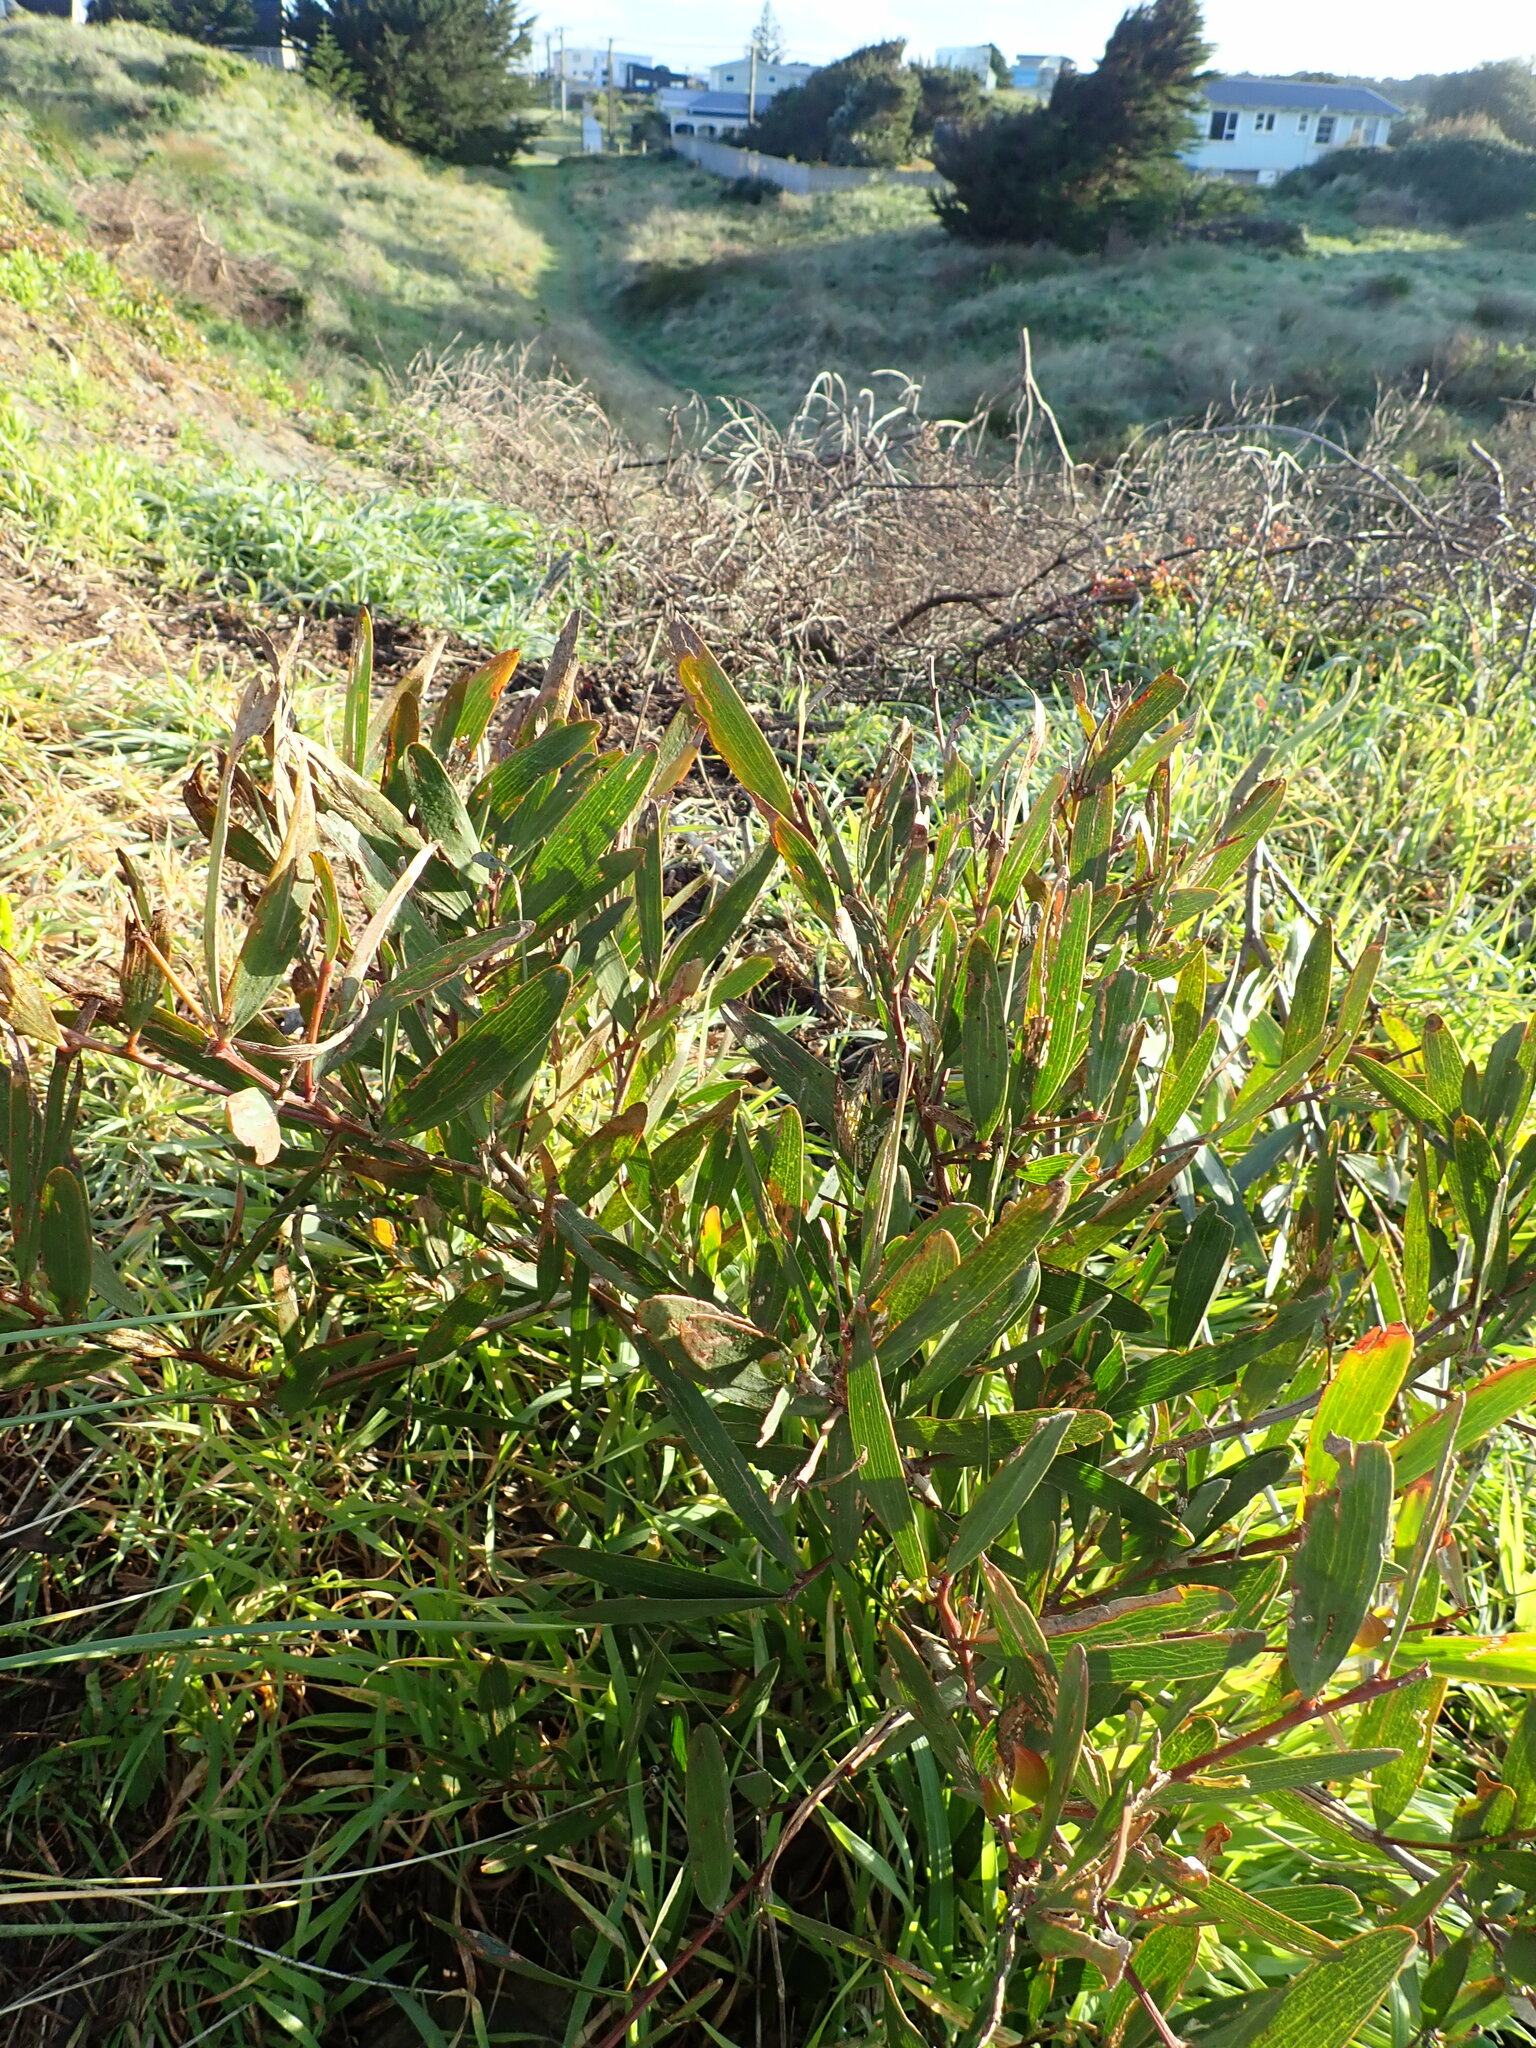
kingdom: Plantae
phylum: Tracheophyta
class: Magnoliopsida
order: Fabales
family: Fabaceae
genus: Acacia
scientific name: Acacia longifolia
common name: Sydney golden wattle
